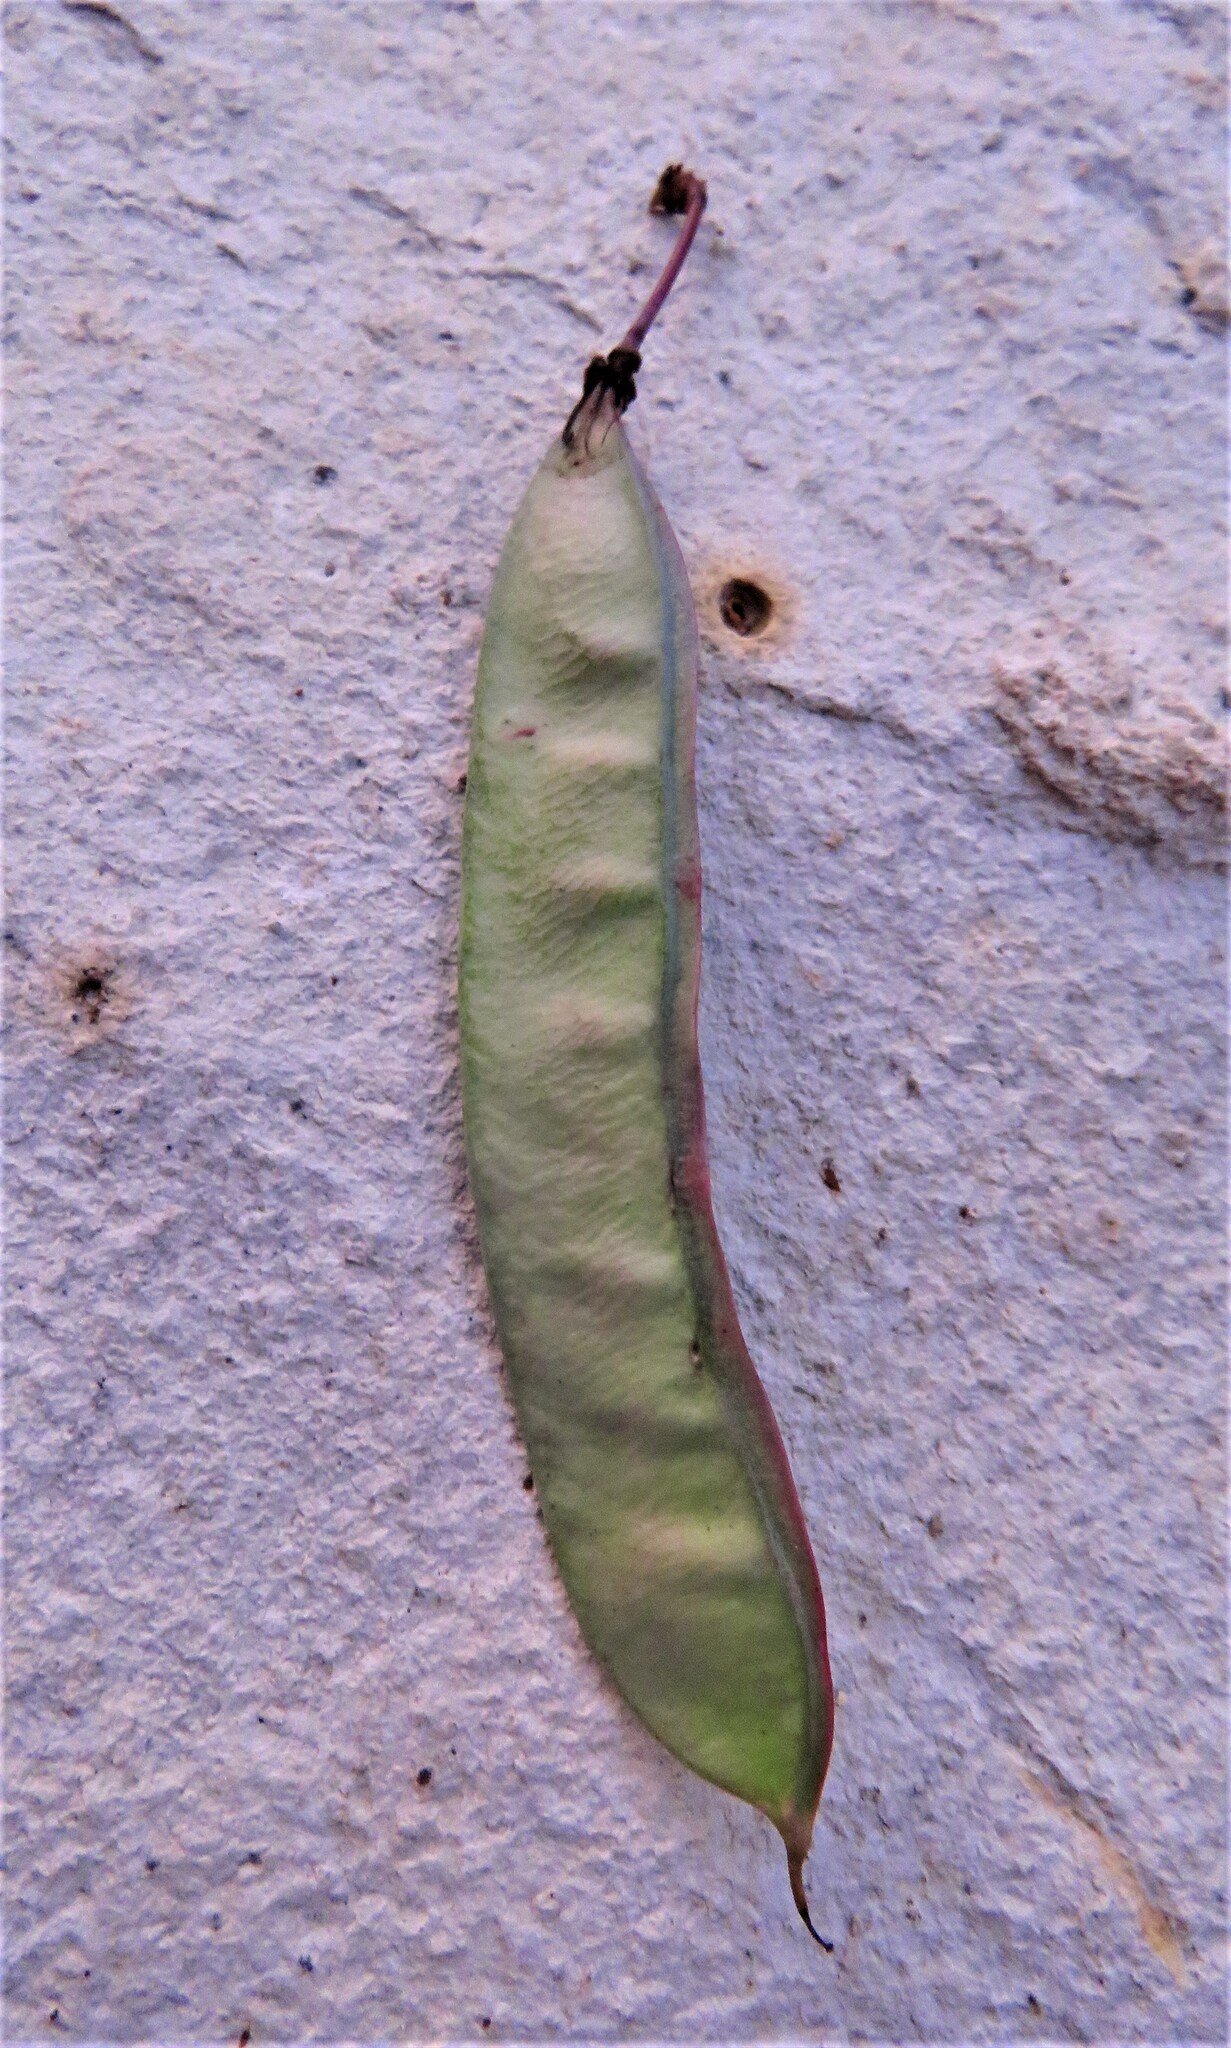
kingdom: Plantae
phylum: Tracheophyta
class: Magnoliopsida
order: Fabales
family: Fabaceae
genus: Cercis
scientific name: Cercis canadensis
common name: Eastern redbud
